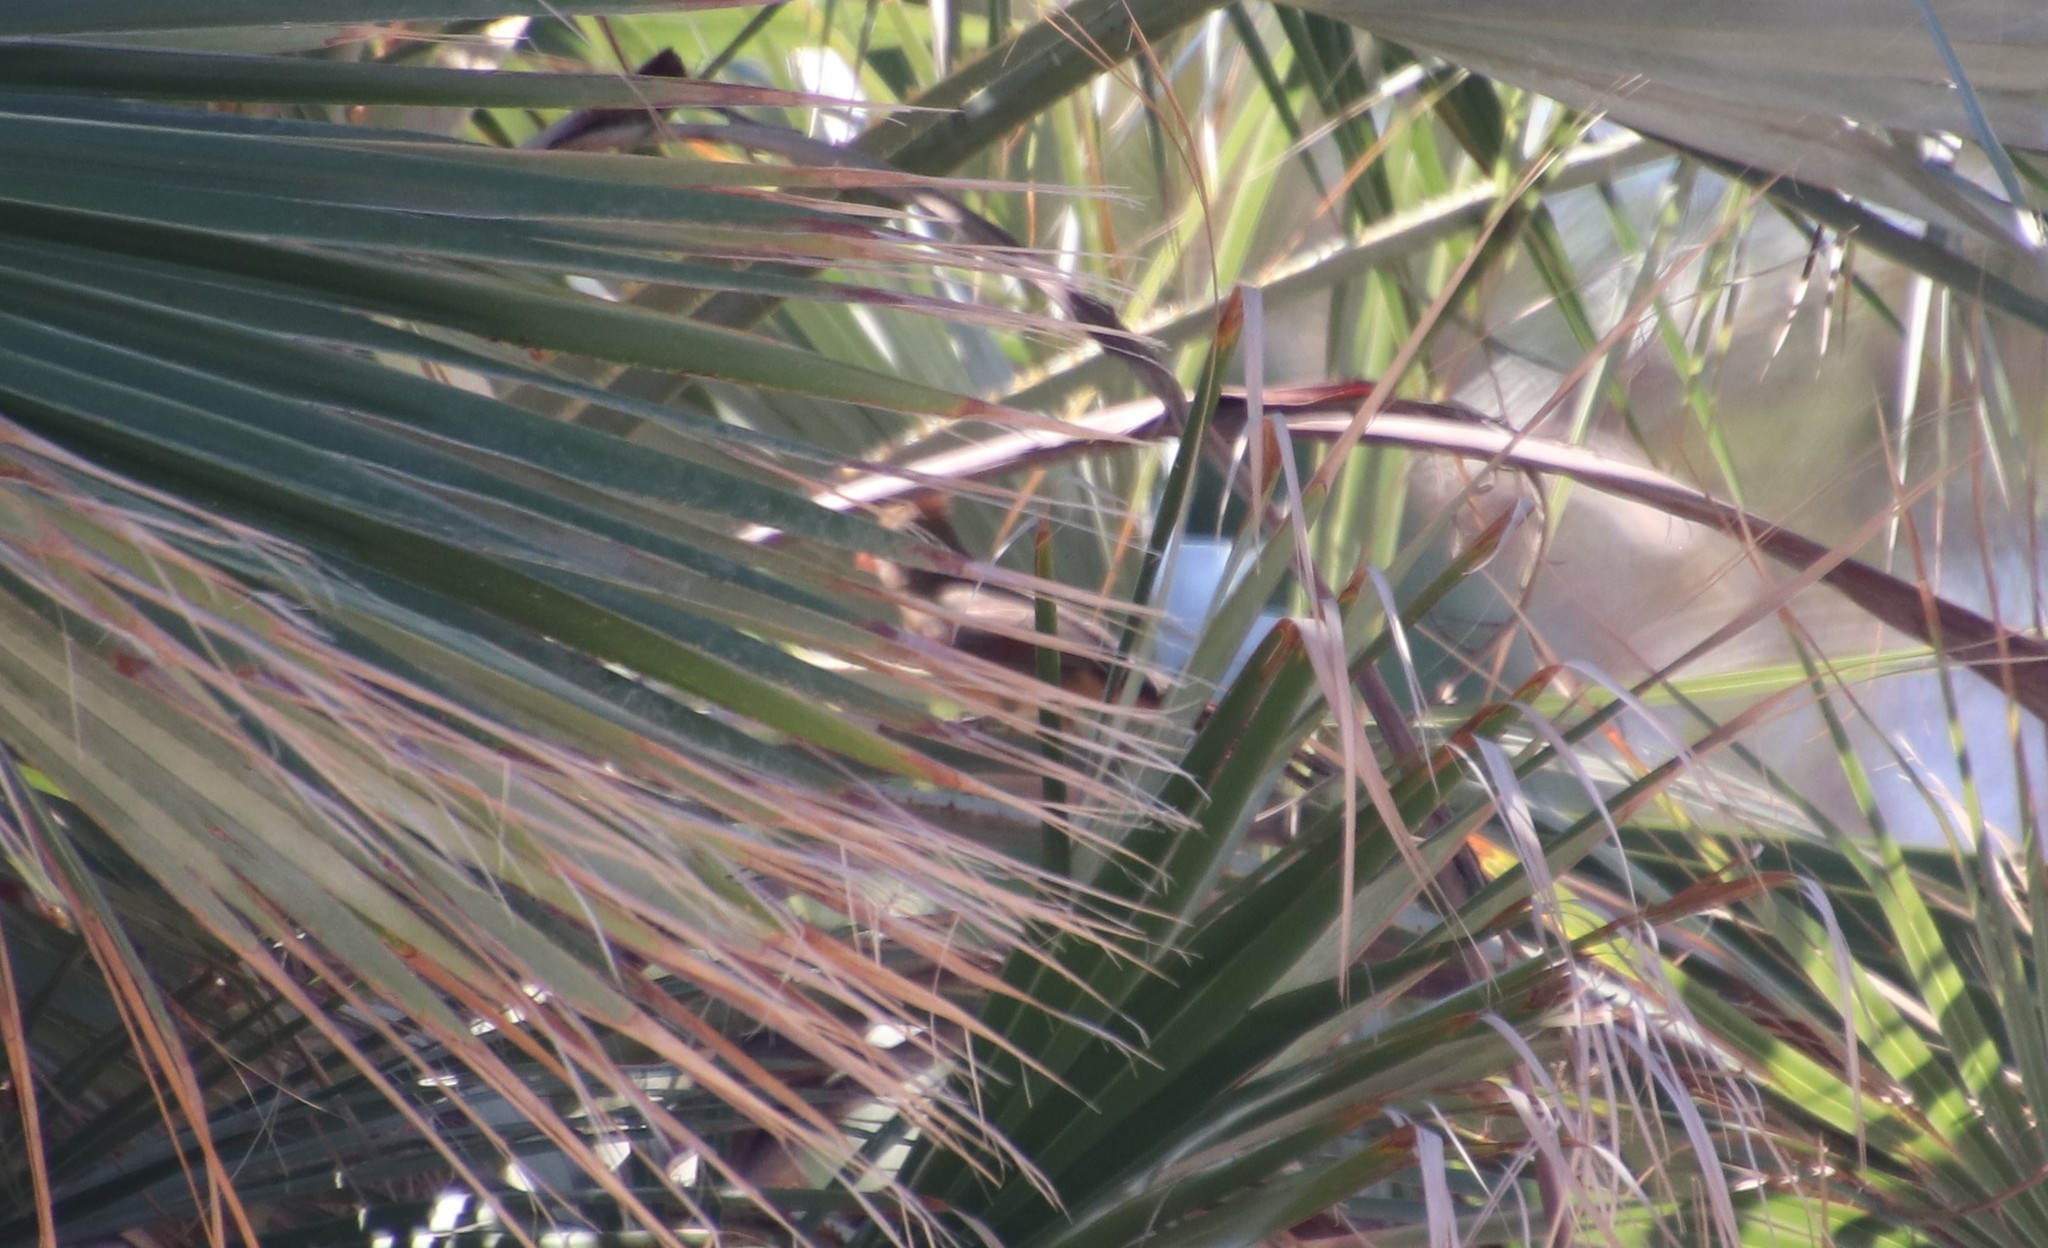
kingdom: Animalia
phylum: Chordata
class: Aves
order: Passeriformes
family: Cardinalidae
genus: Cardinalis
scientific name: Cardinalis sinuatus
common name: Pyrrhuloxia
